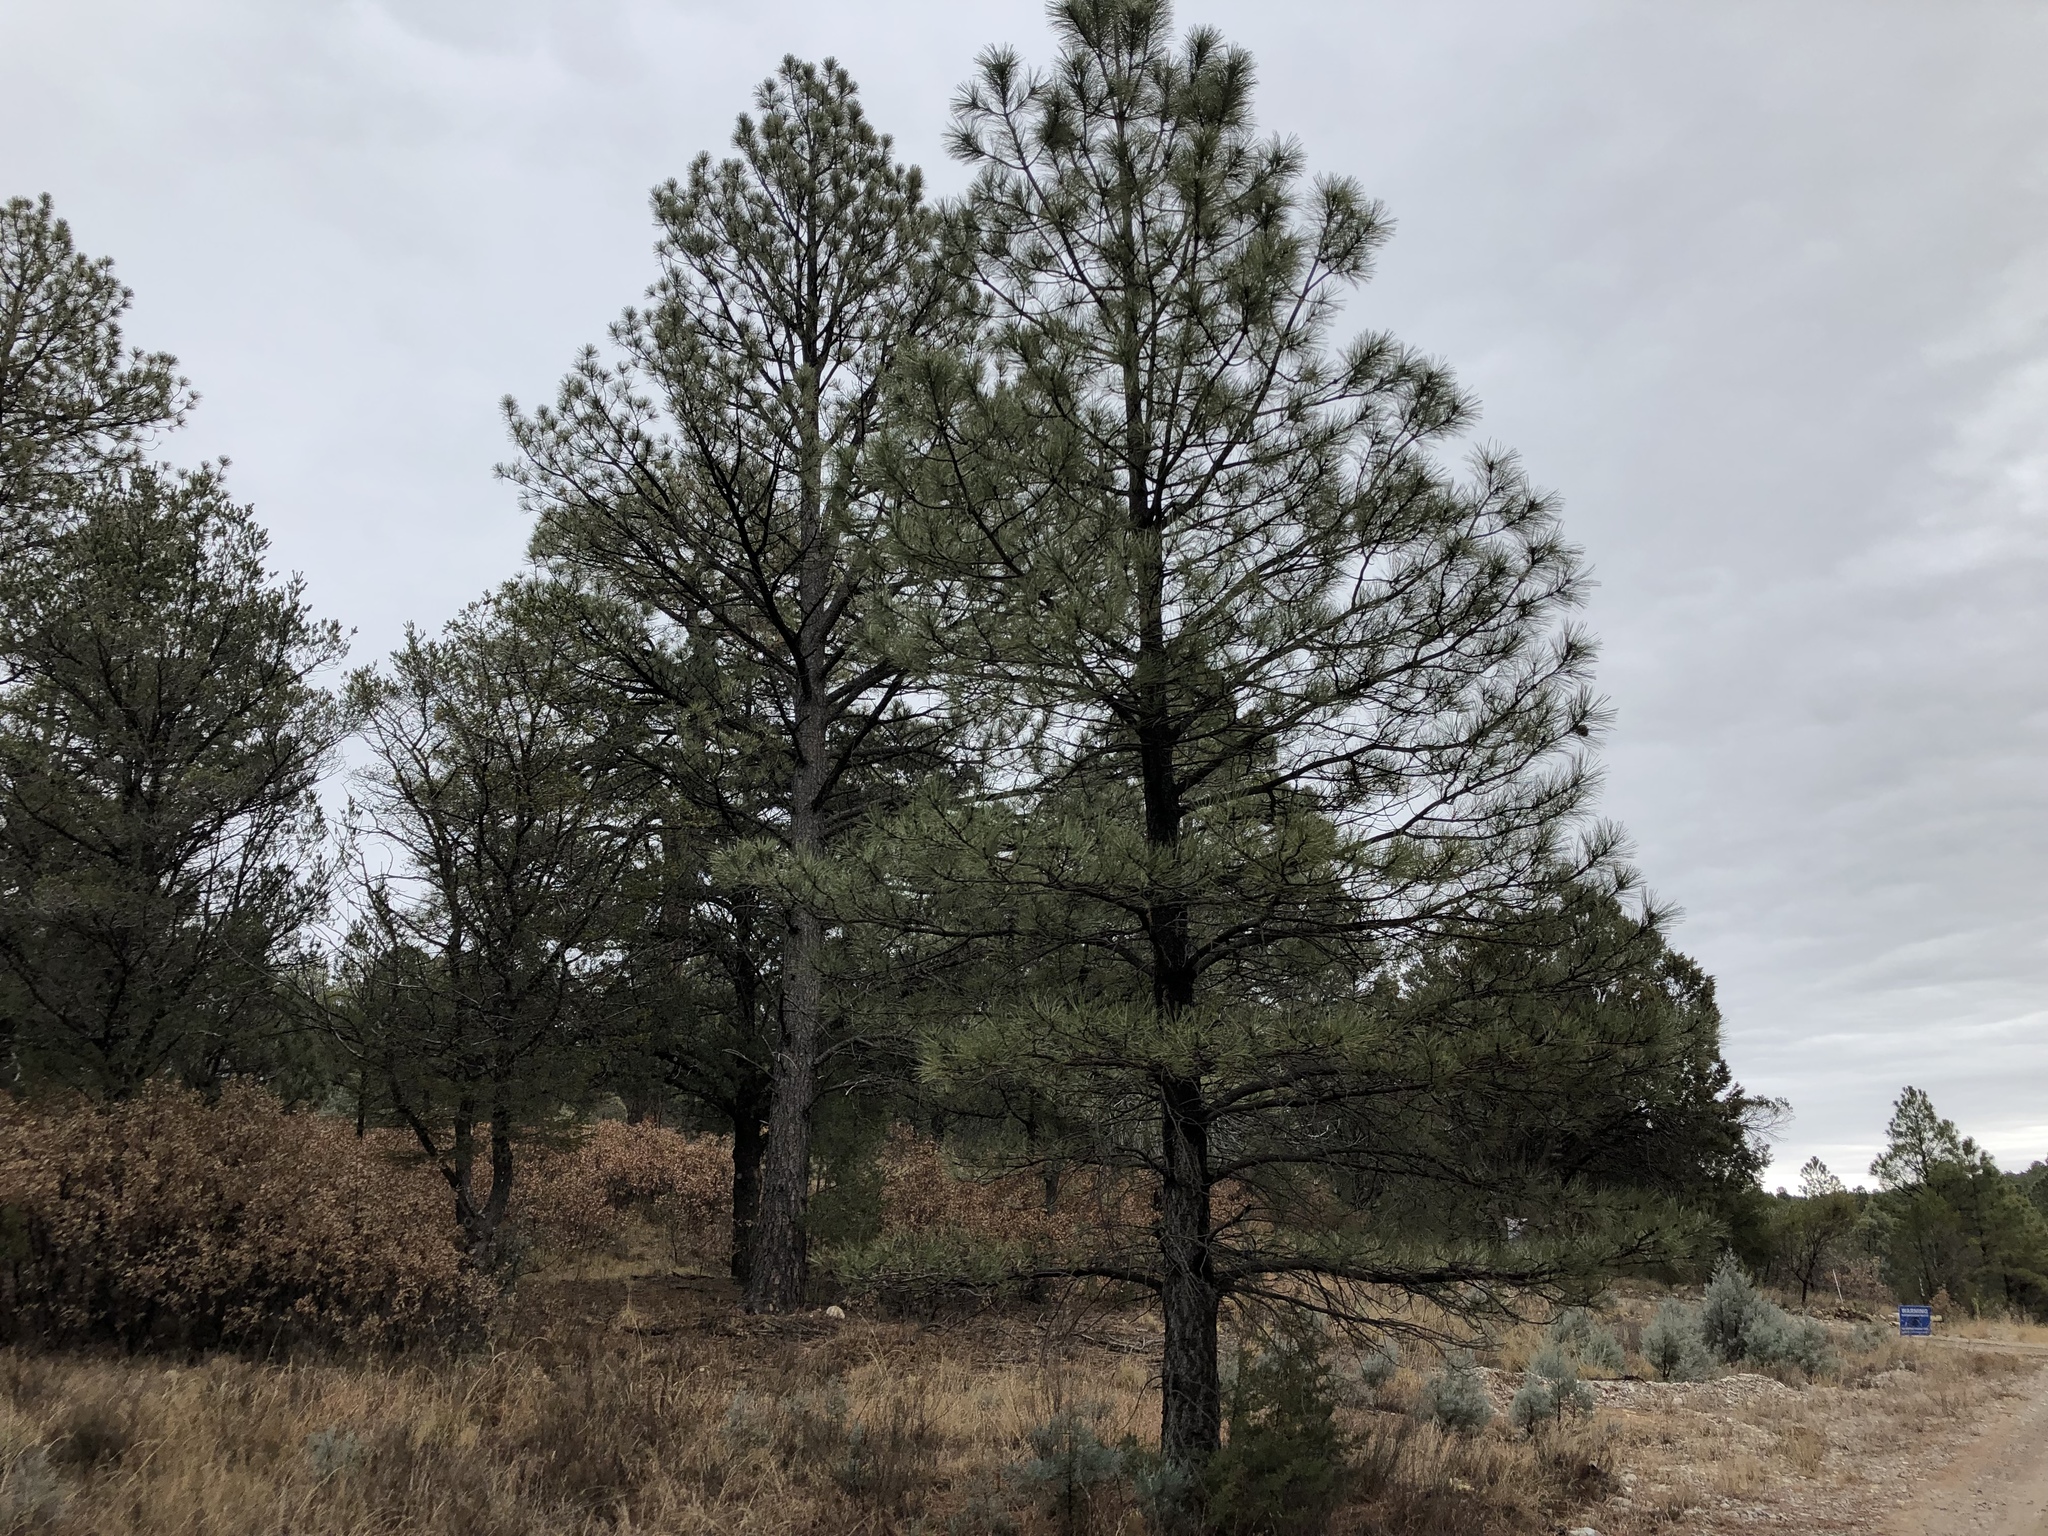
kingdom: Plantae
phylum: Tracheophyta
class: Pinopsida
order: Pinales
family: Pinaceae
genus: Pinus
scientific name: Pinus ponderosa
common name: Western yellow-pine
